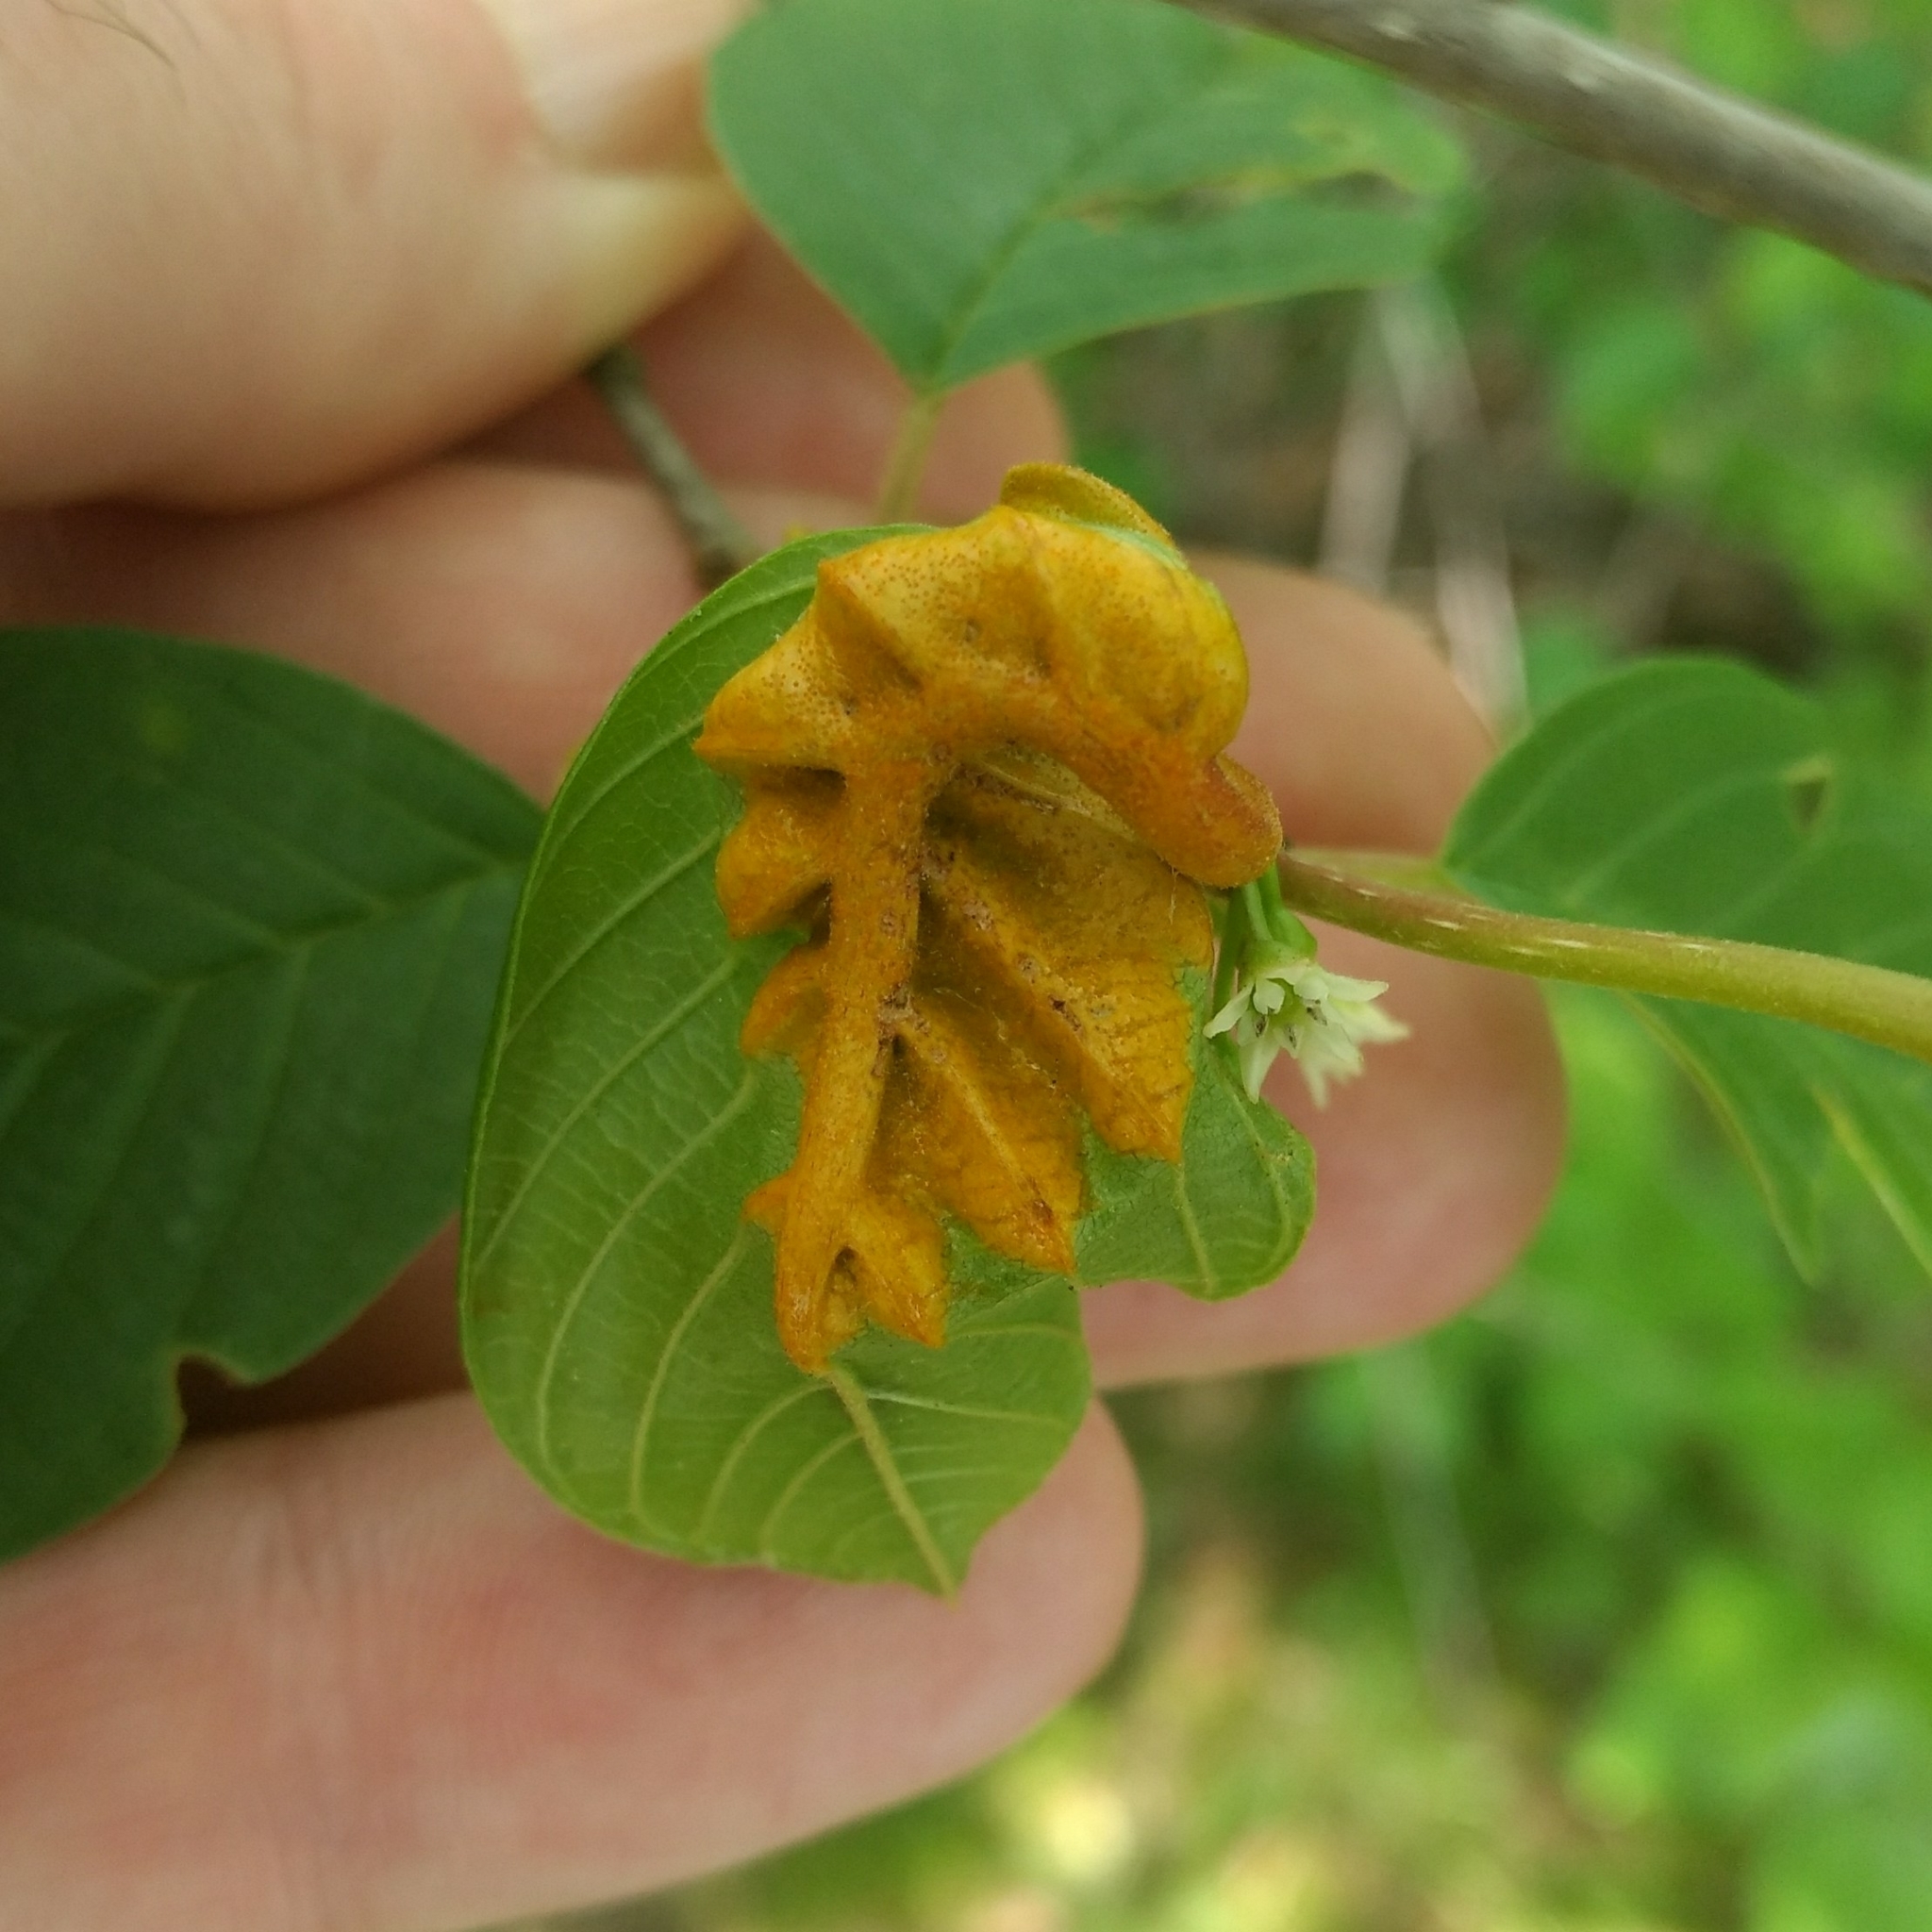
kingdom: Fungi
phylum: Basidiomycota
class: Pucciniomycetes
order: Pucciniales
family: Pucciniaceae
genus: Puccinia
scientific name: Puccinia coronata
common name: Crown rust
